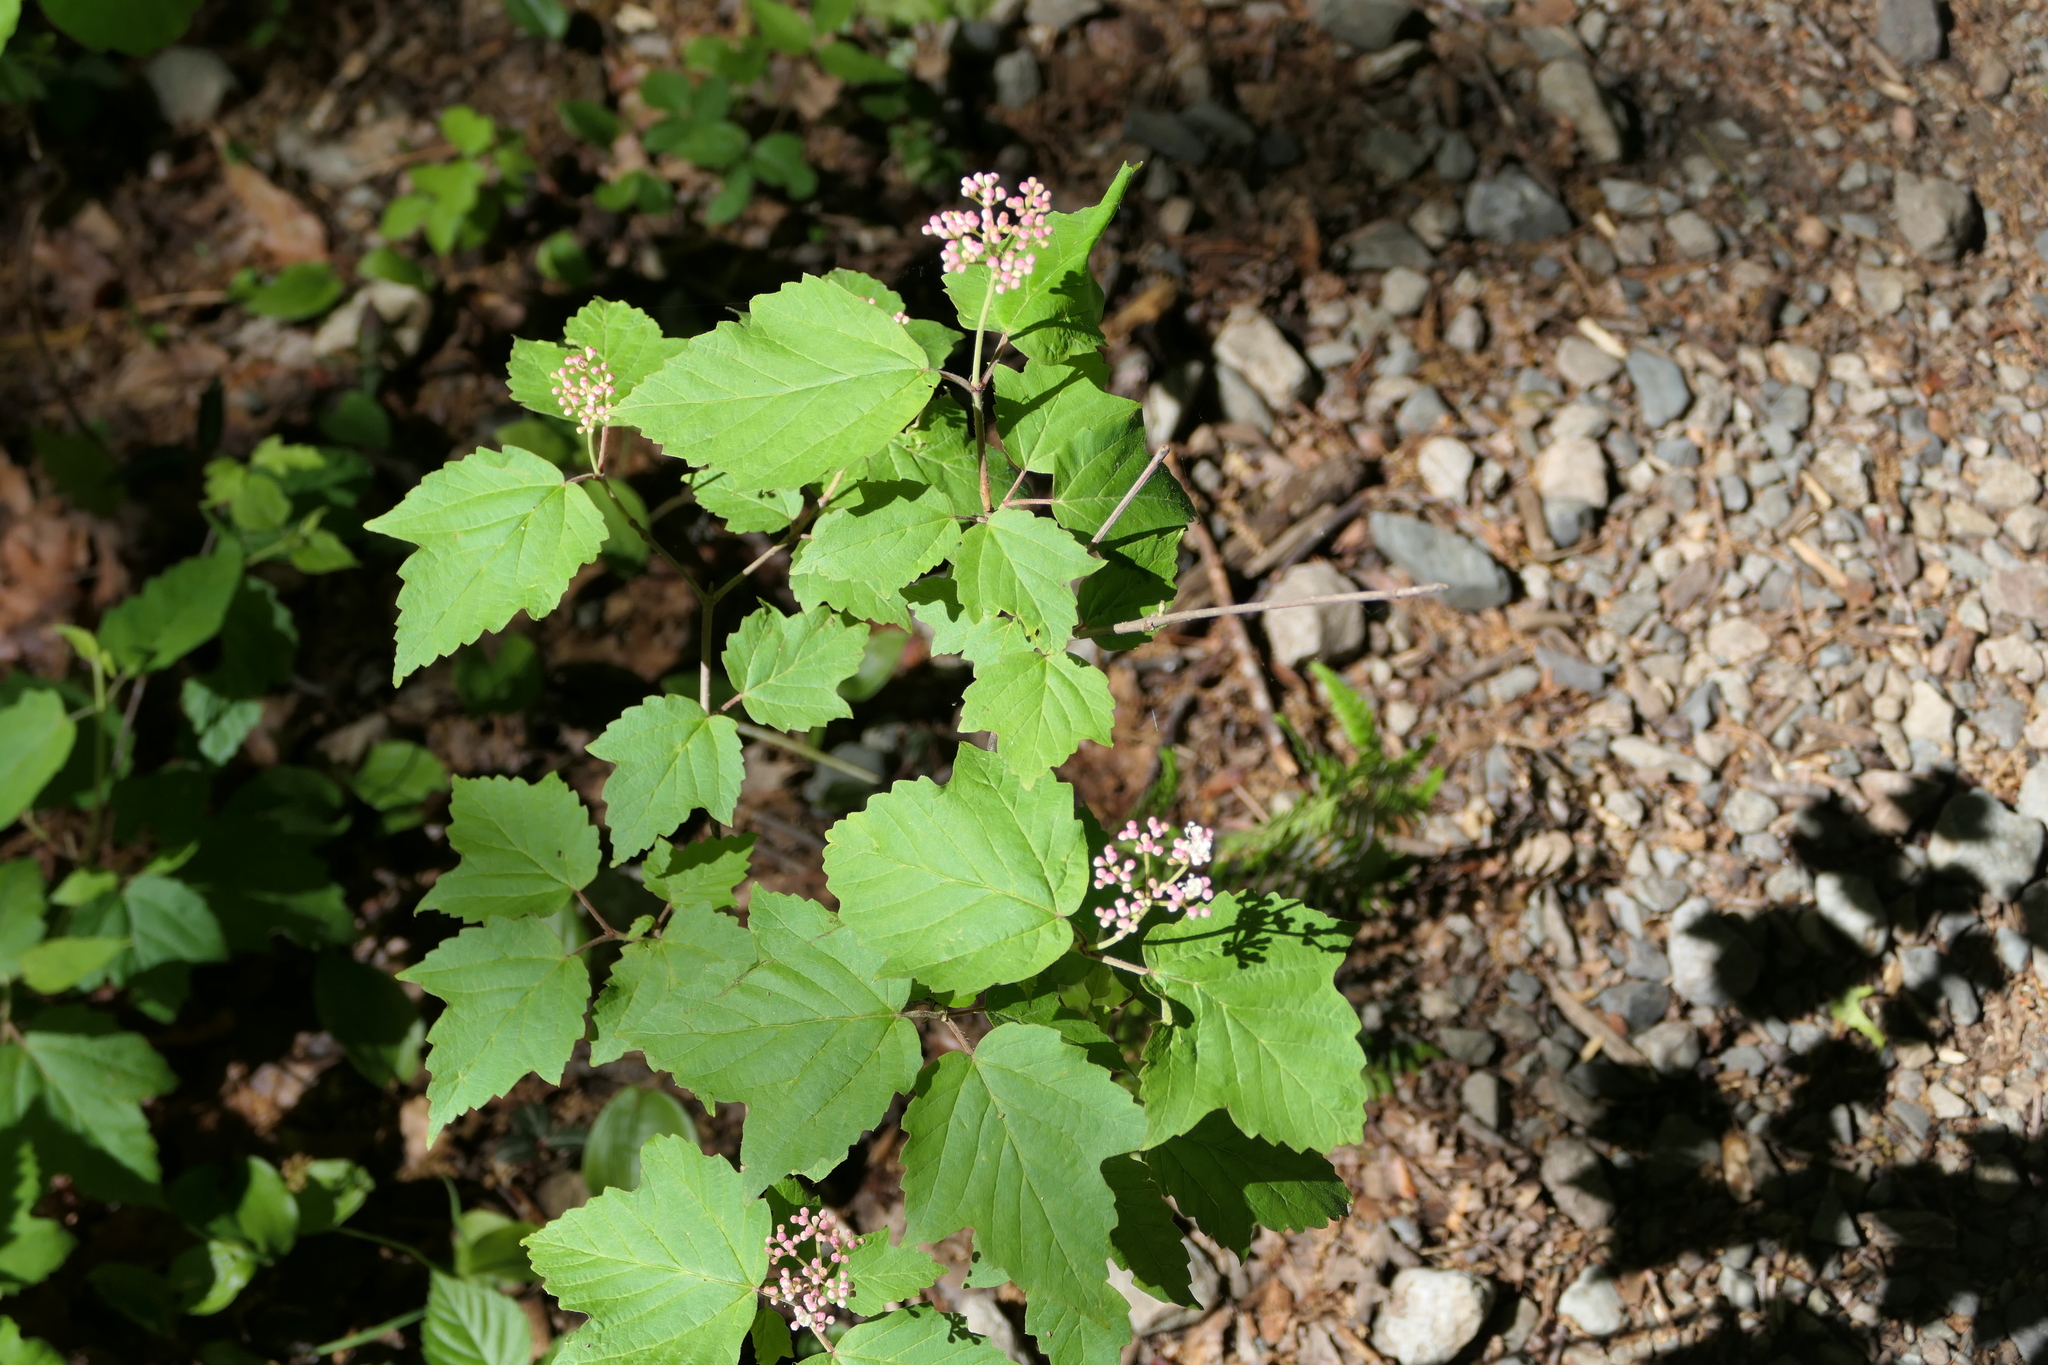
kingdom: Plantae
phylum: Tracheophyta
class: Magnoliopsida
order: Dipsacales
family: Viburnaceae
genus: Viburnum
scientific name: Viburnum acerifolium
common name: Dockmackie
